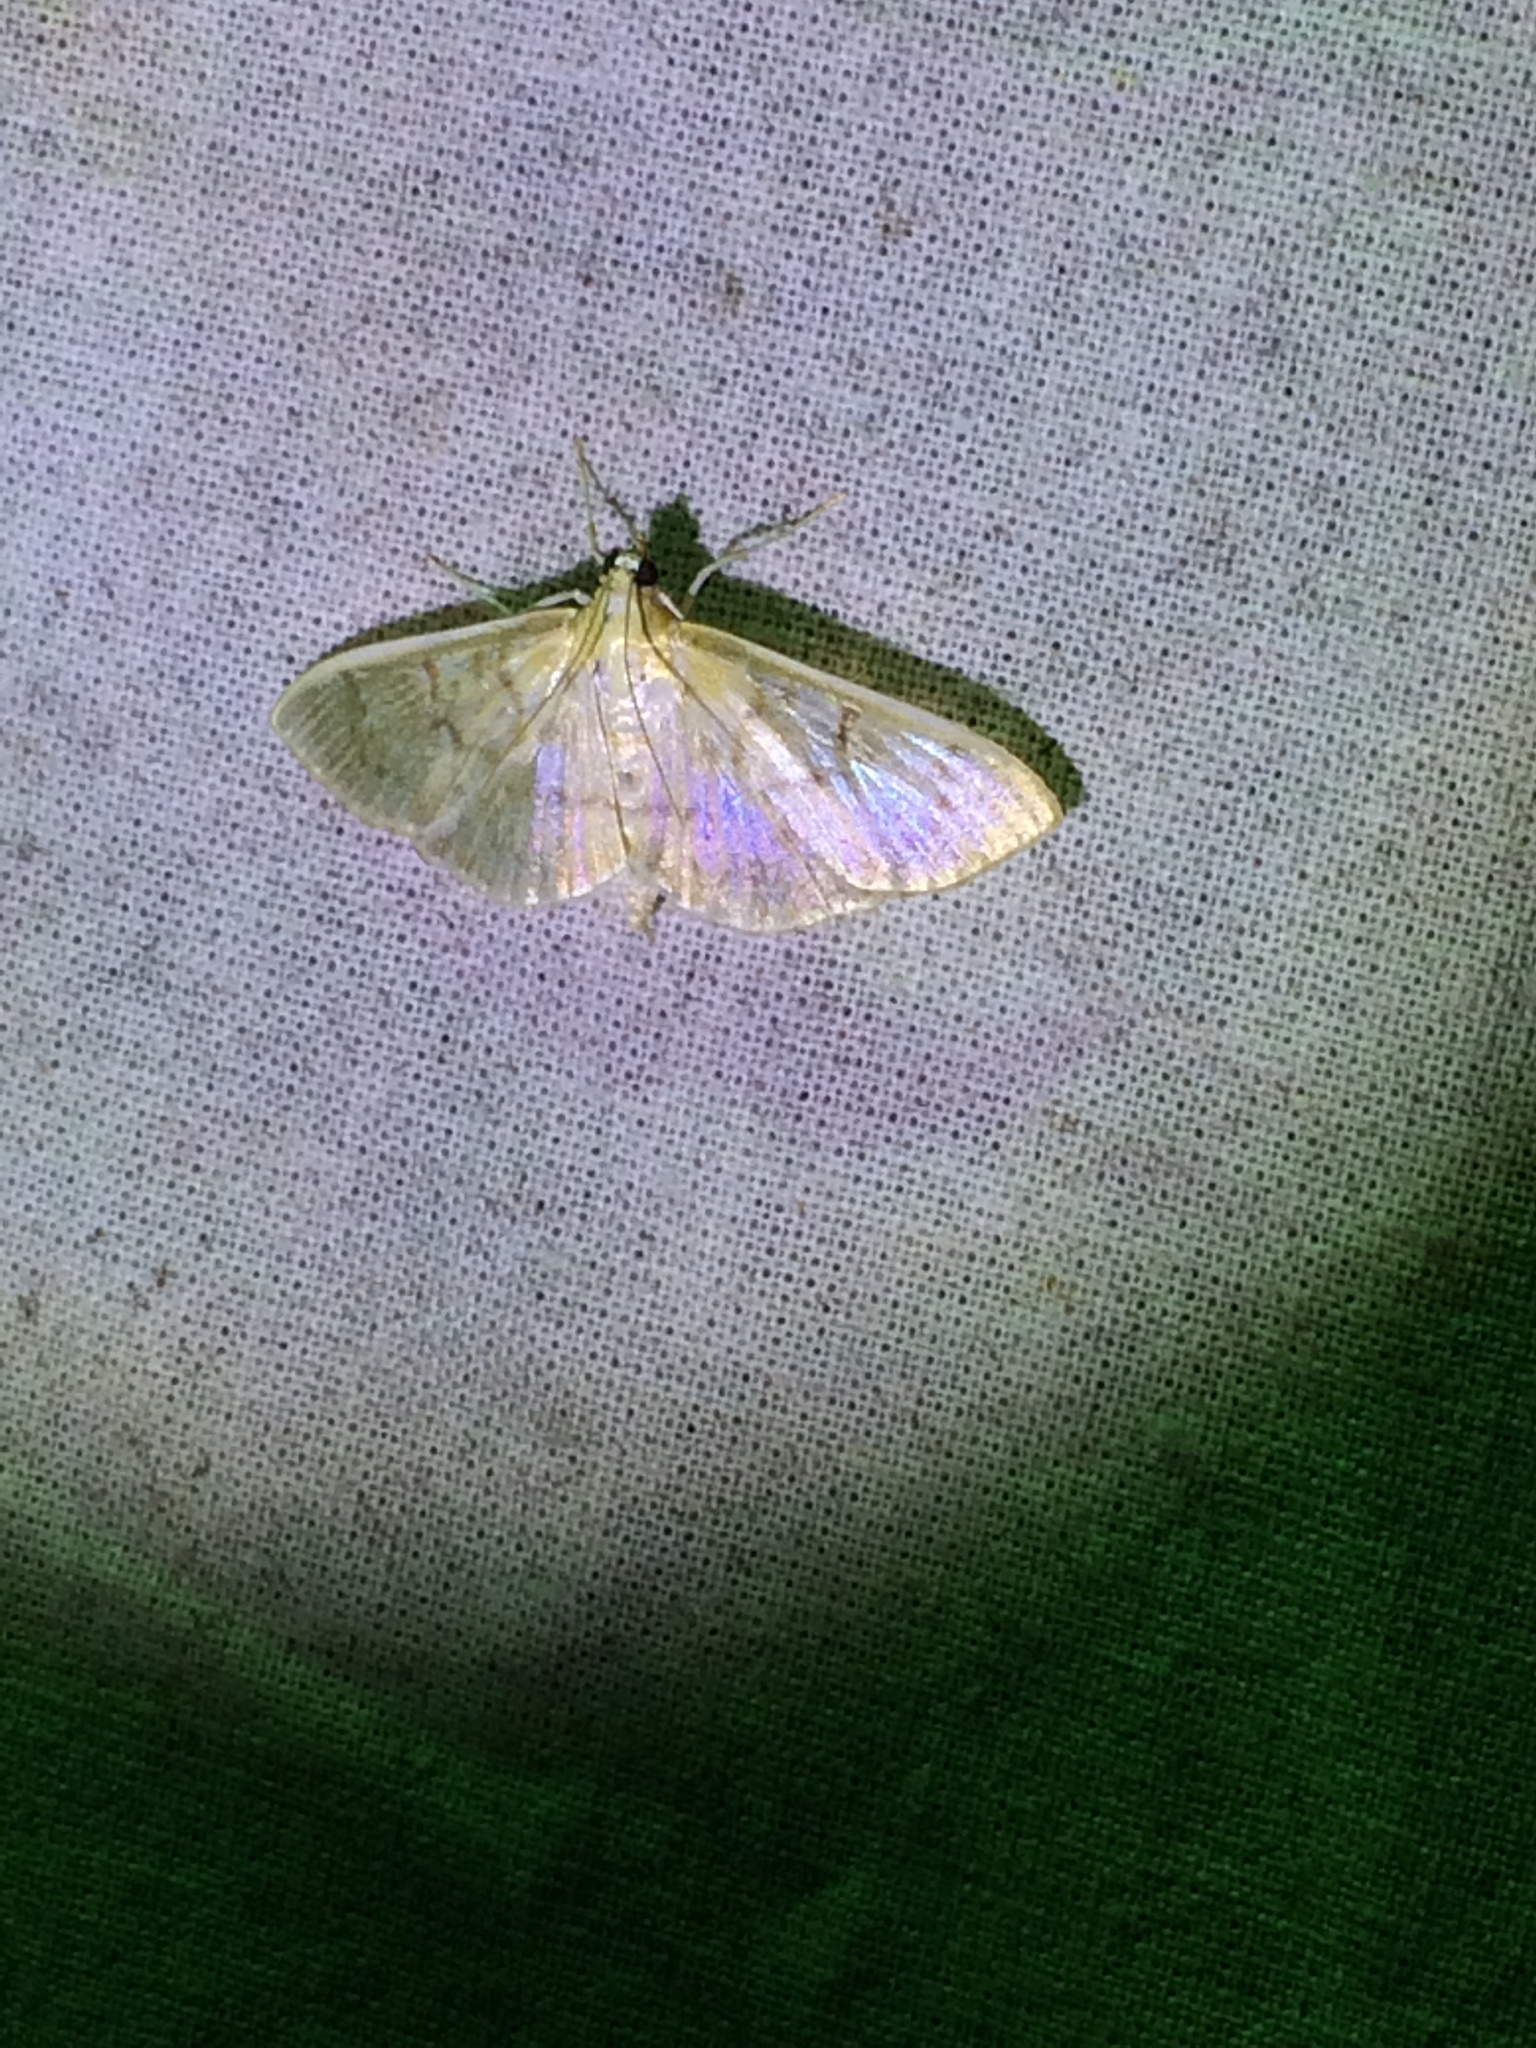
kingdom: Animalia
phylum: Arthropoda
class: Insecta
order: Lepidoptera
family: Crambidae
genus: Patania
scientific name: Patania ruralis
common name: Mother of pearl
